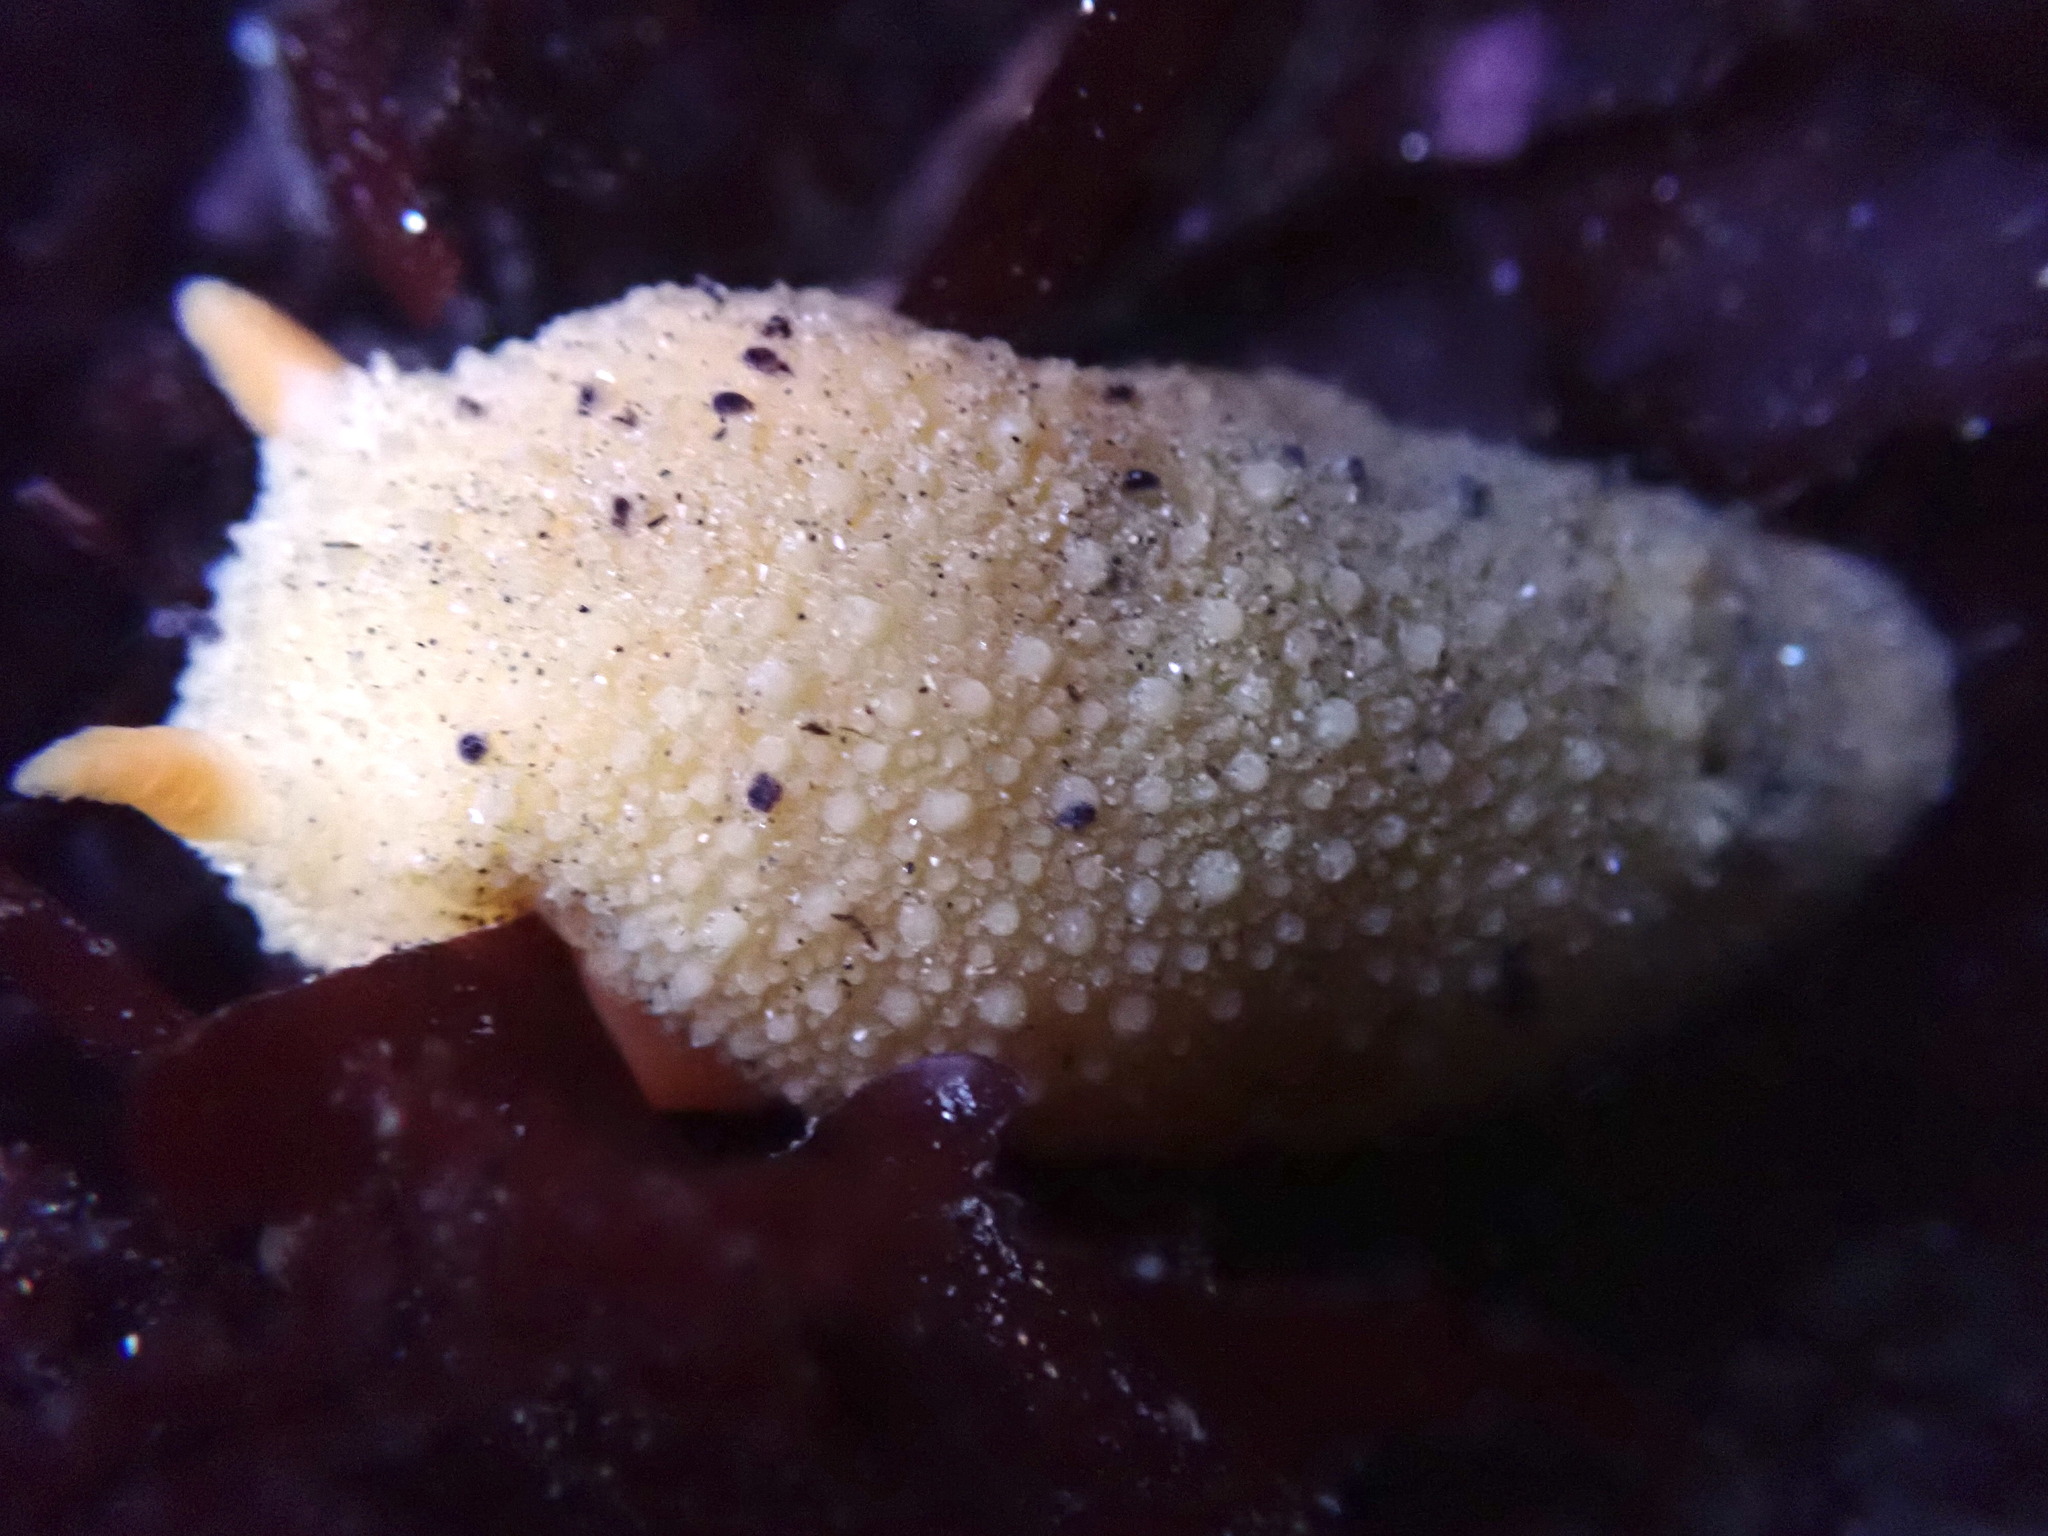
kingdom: Animalia
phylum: Mollusca
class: Gastropoda
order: Nudibranchia
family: Dorididae
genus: Doris
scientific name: Doris montereyensis
